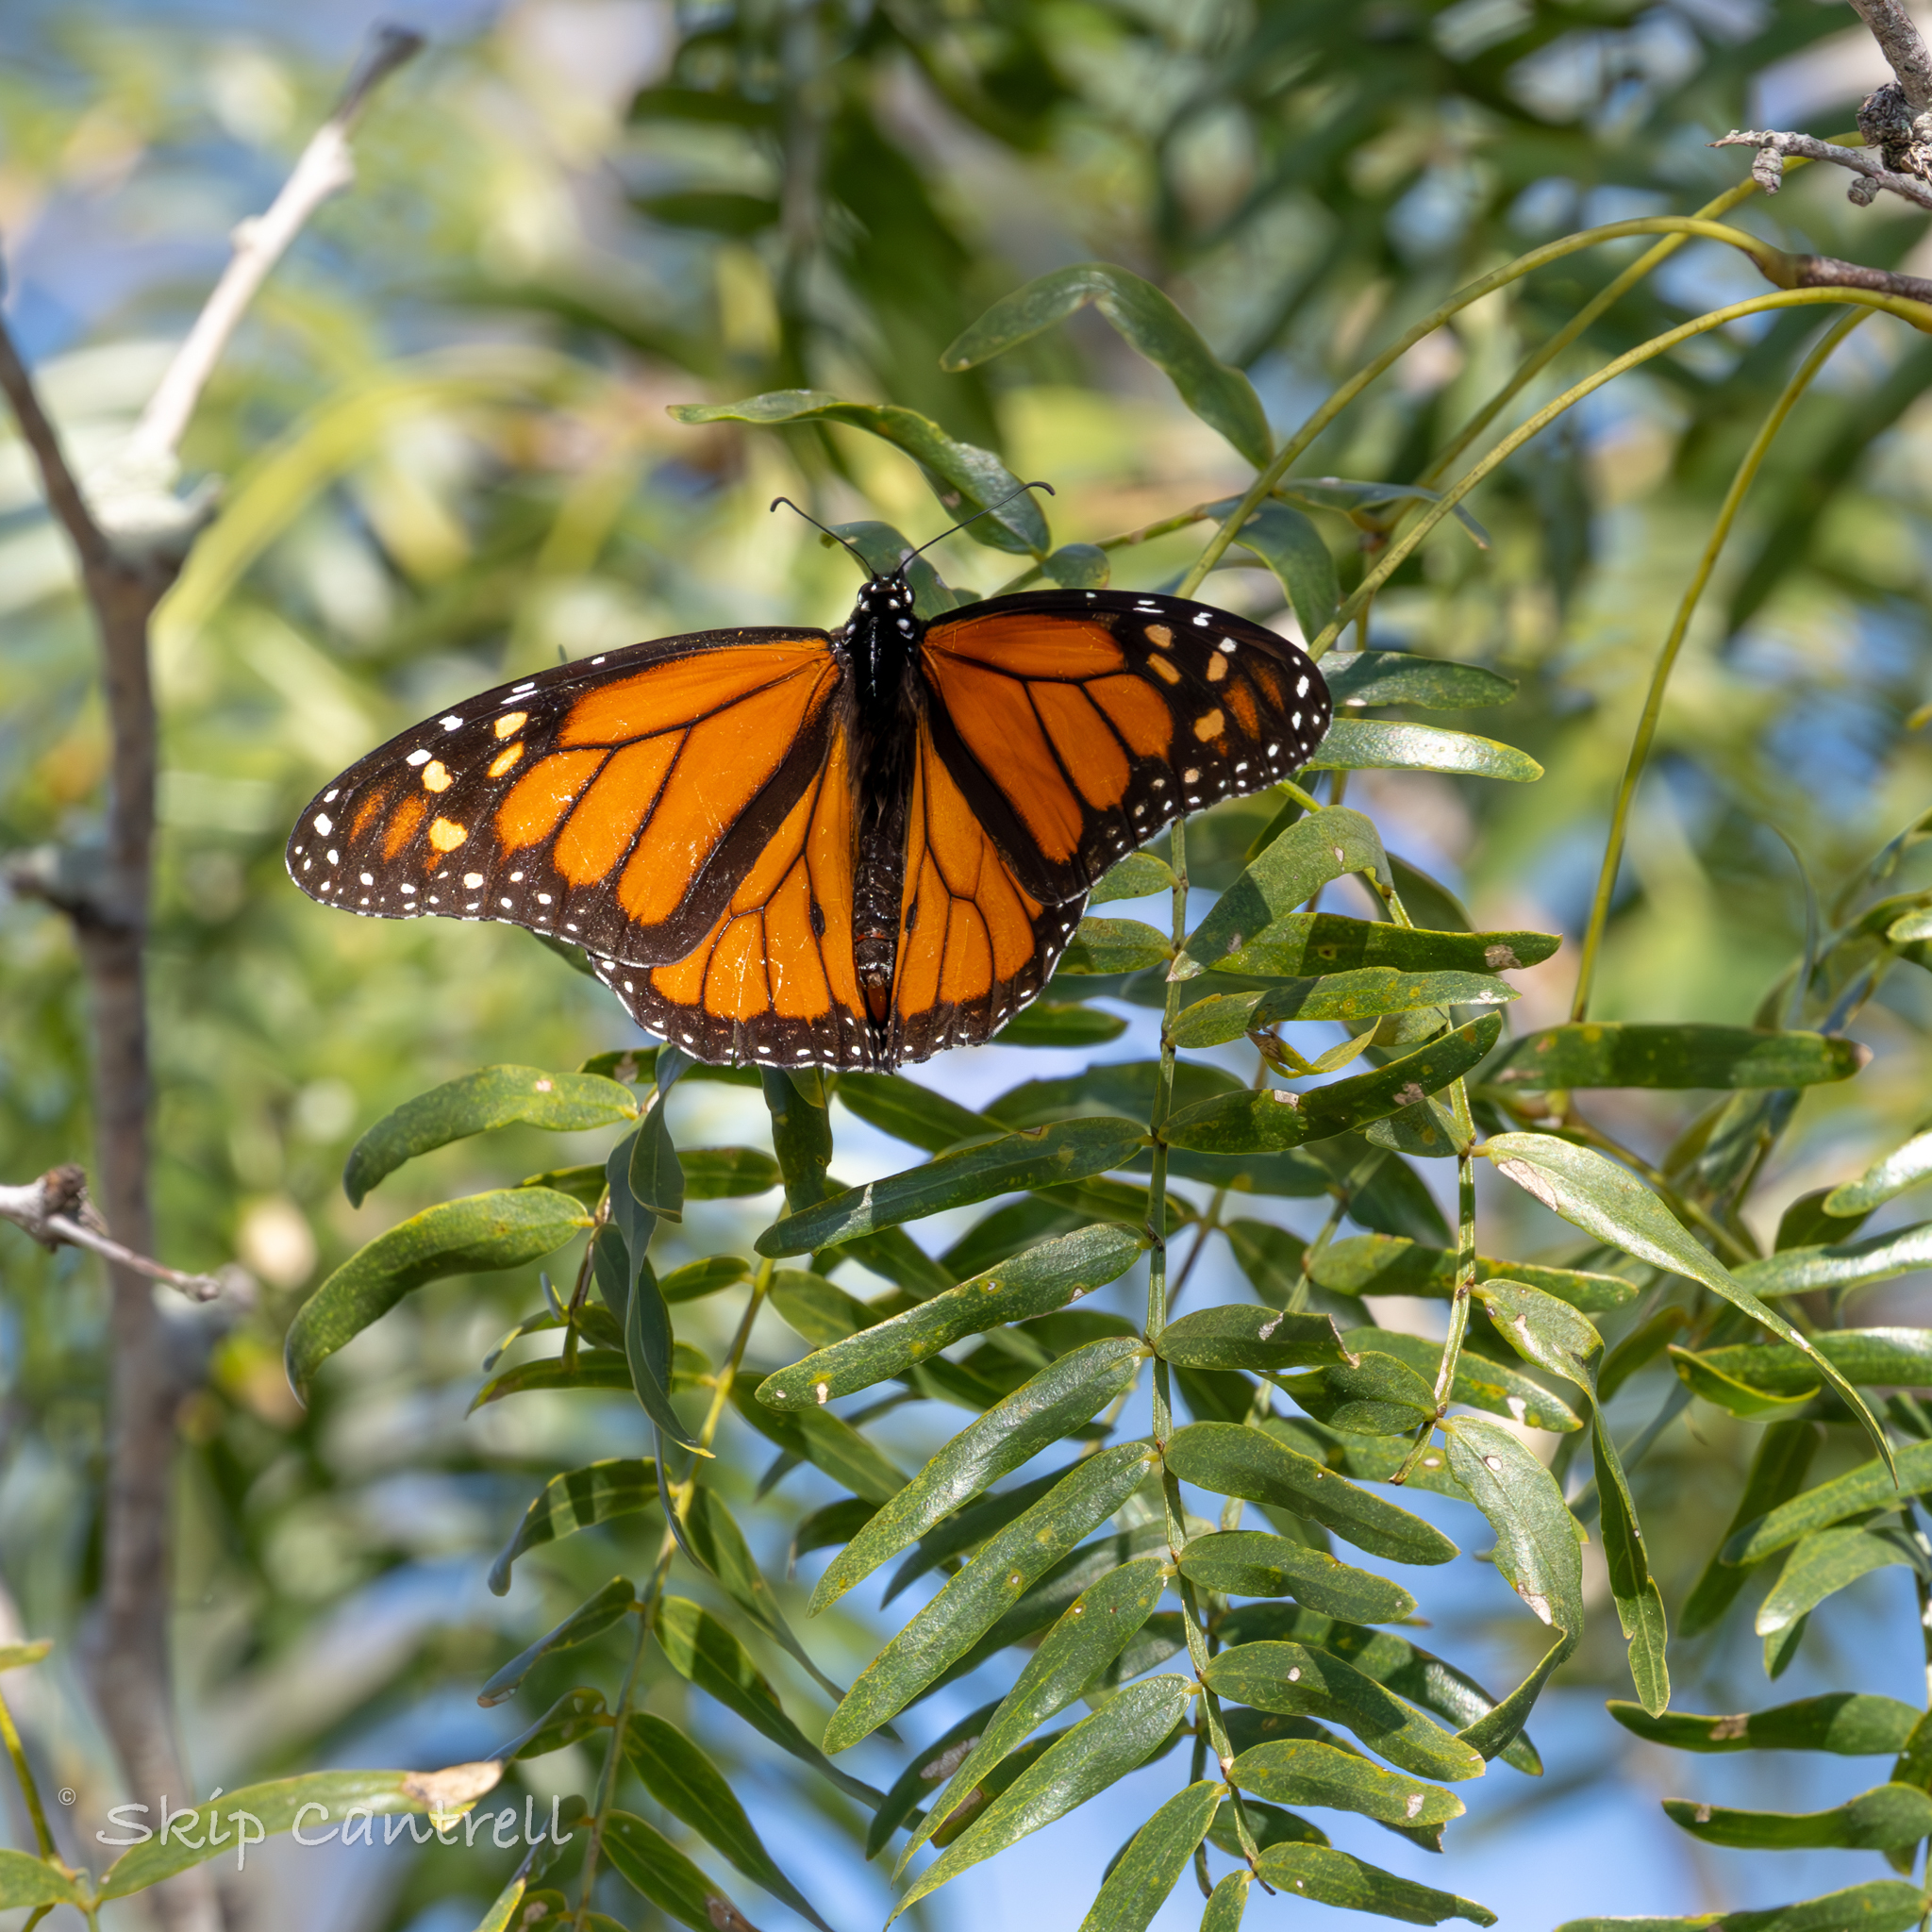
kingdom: Animalia
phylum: Arthropoda
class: Insecta
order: Lepidoptera
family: Nymphalidae
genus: Danaus
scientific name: Danaus plexippus
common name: Monarch
